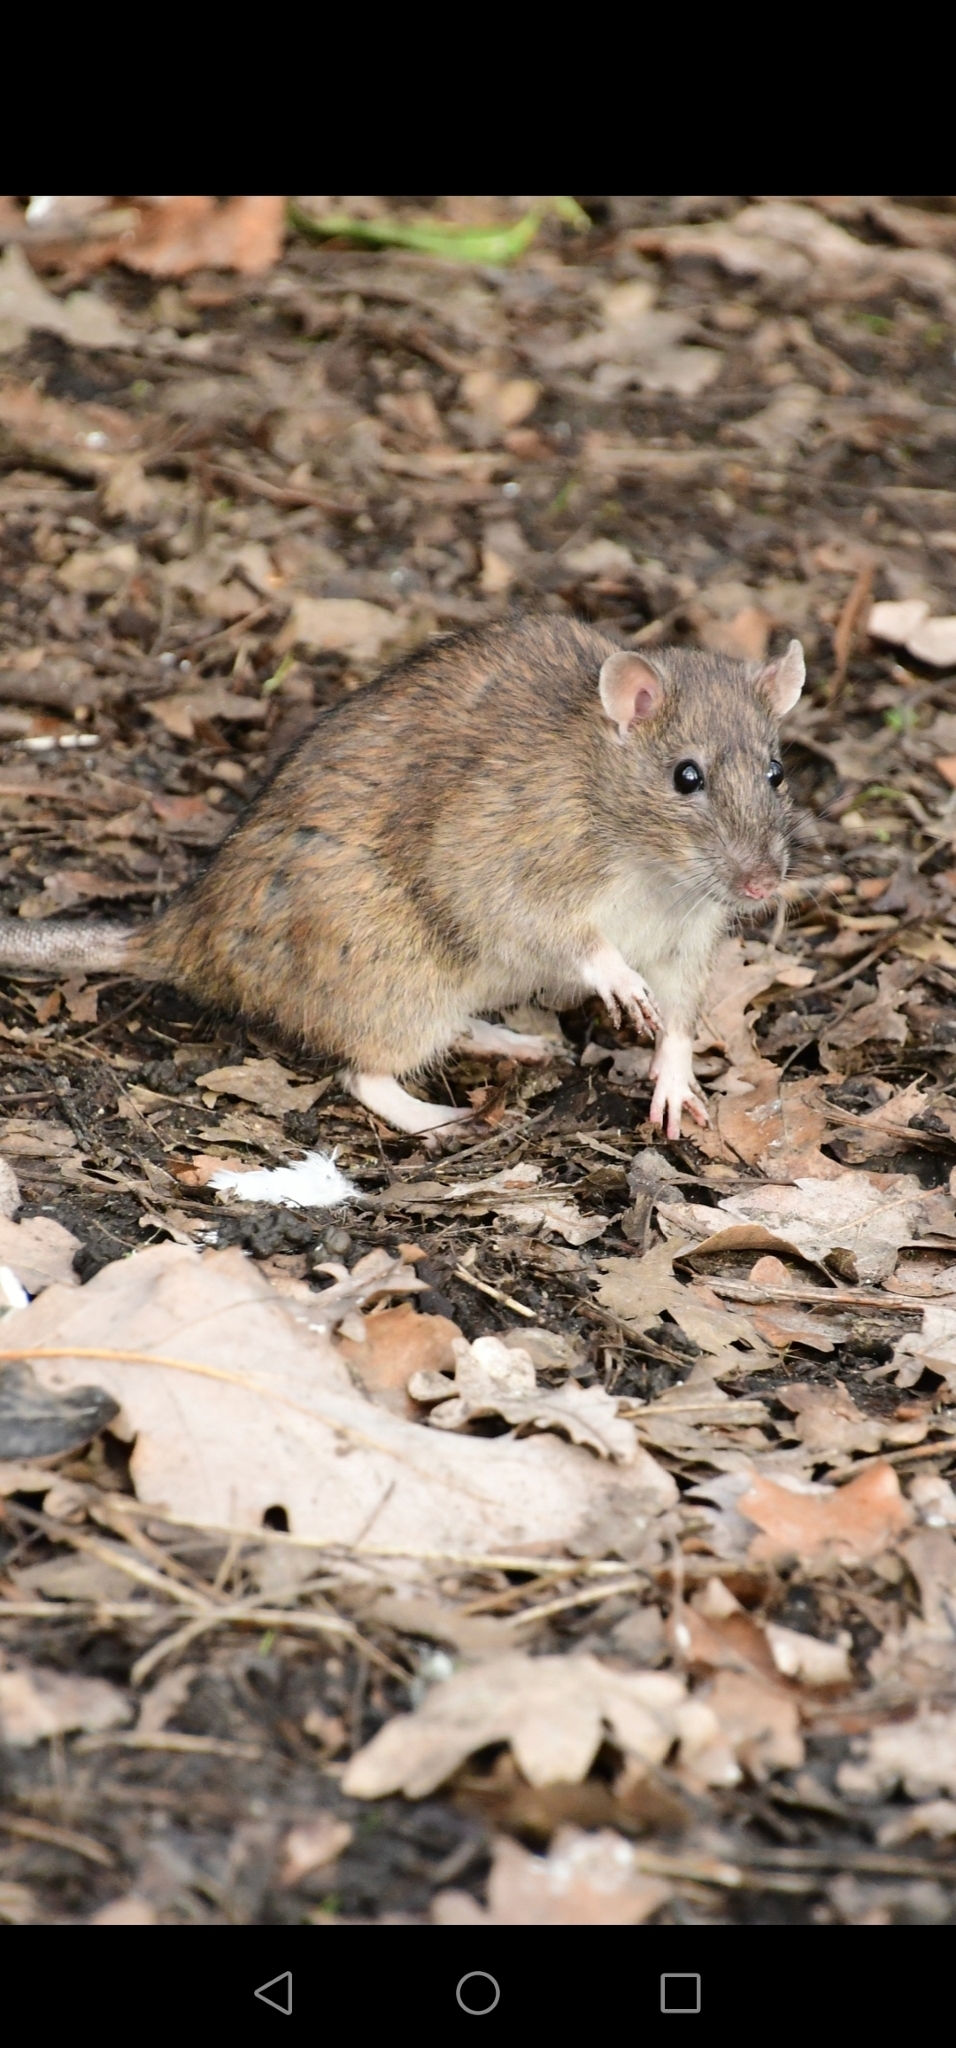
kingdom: Animalia
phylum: Chordata
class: Mammalia
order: Rodentia
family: Muridae
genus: Rattus
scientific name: Rattus norvegicus
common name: Brown rat
